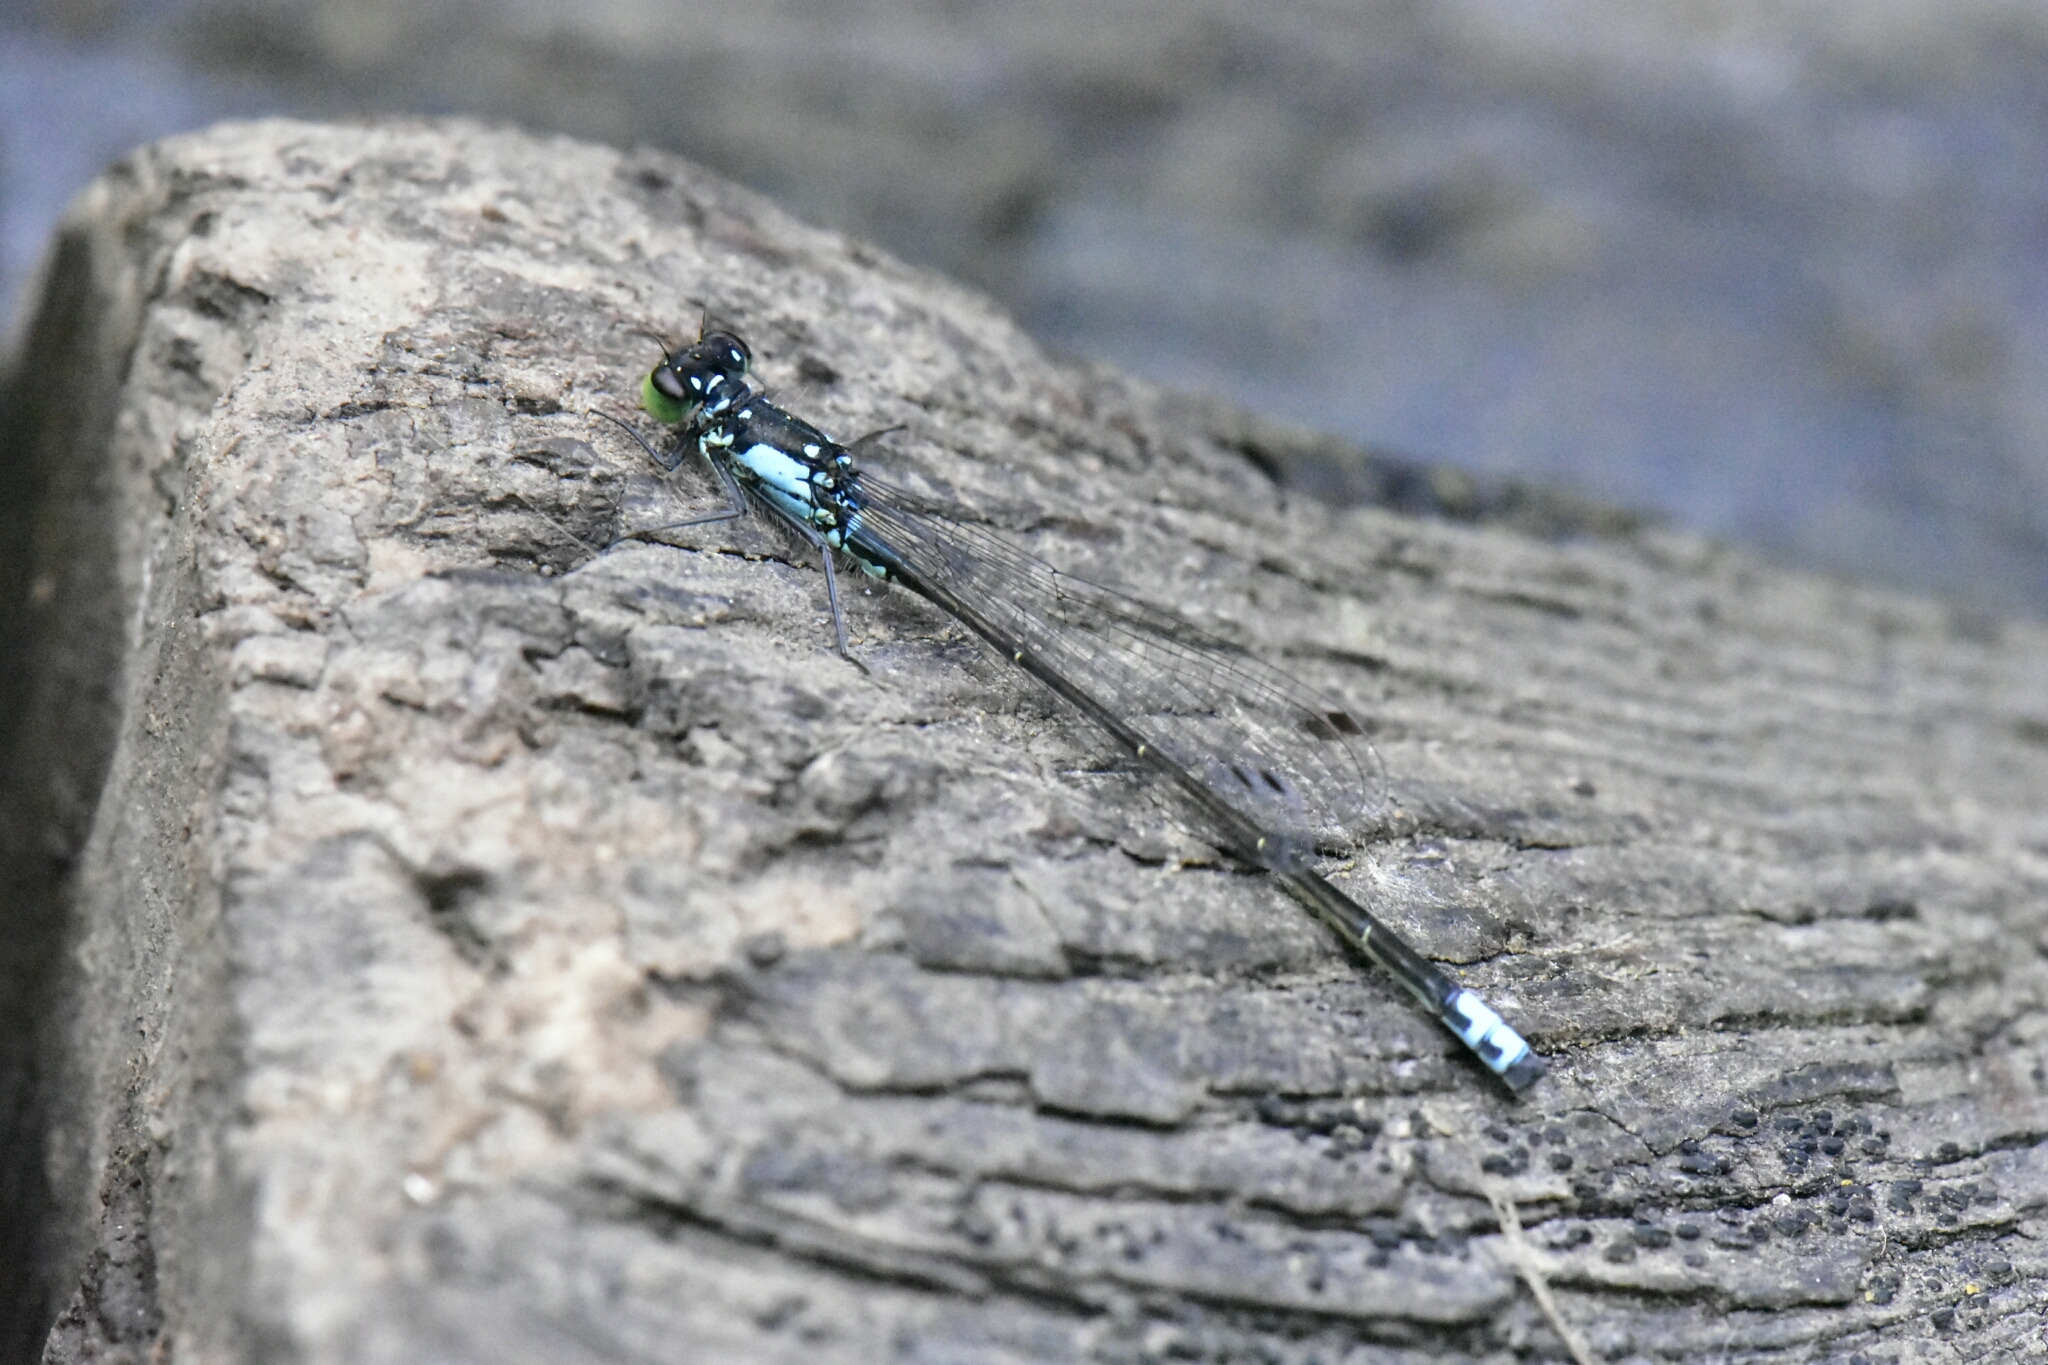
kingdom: Animalia
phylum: Arthropoda
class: Insecta
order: Odonata
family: Coenagrionidae
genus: Ischnura
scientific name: Ischnura cervula
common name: Pacific forktail
